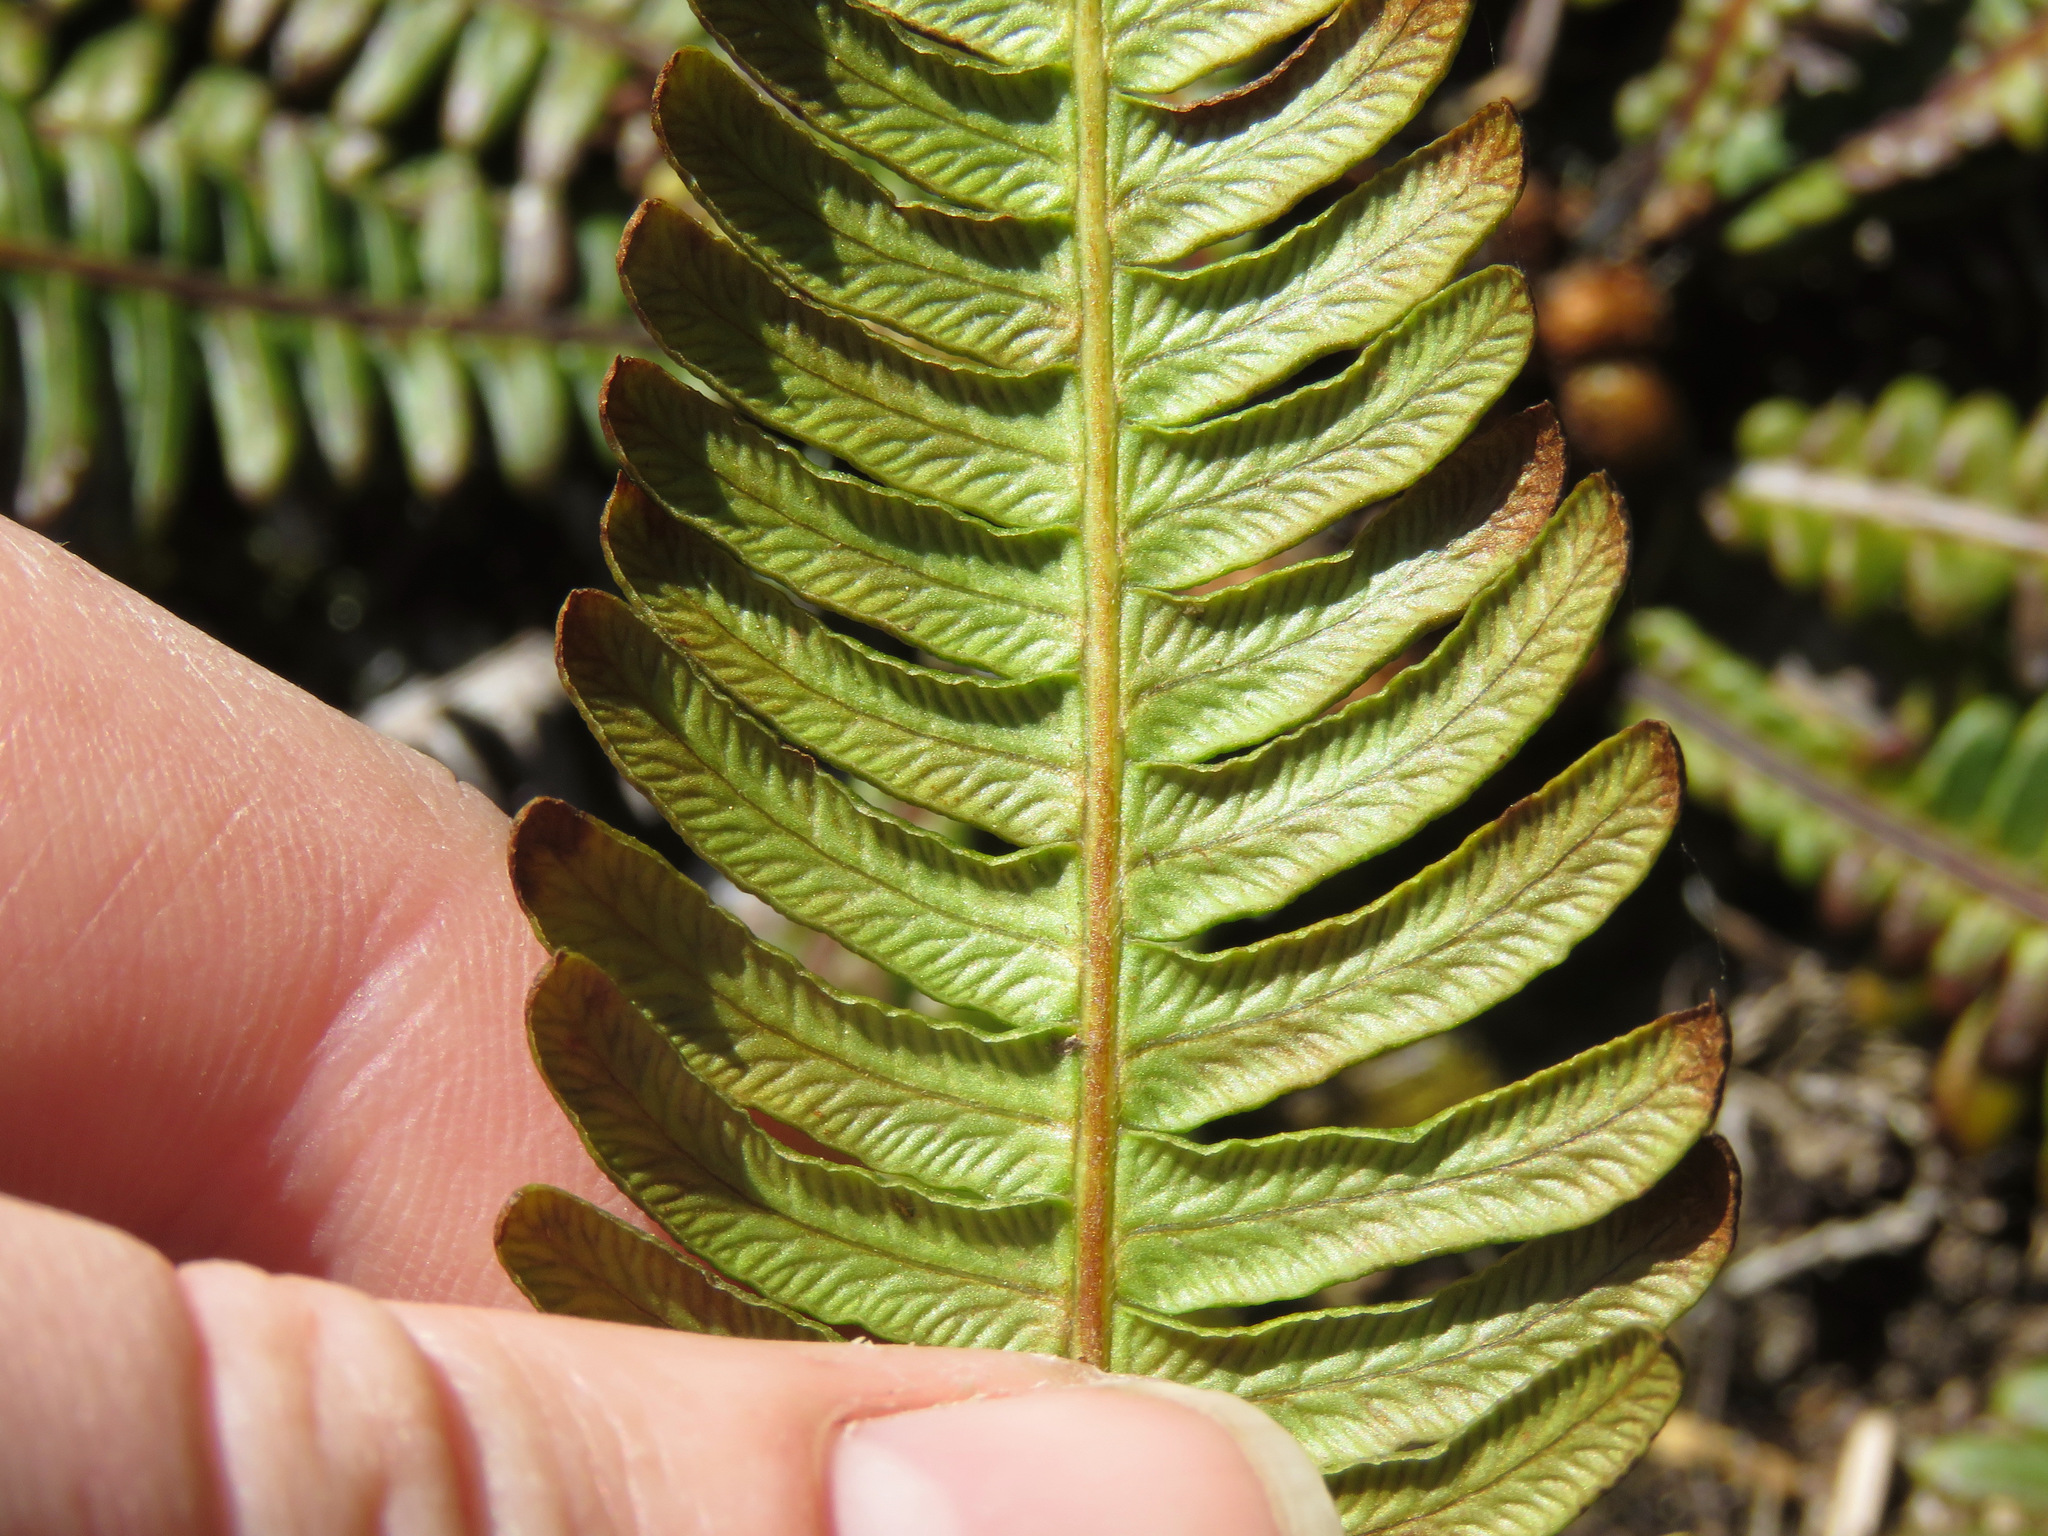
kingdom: Plantae
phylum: Tracheophyta
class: Polypodiopsida
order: Polypodiales
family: Blechnaceae
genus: Struthiopteris
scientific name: Struthiopteris spicant
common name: Deer fern
